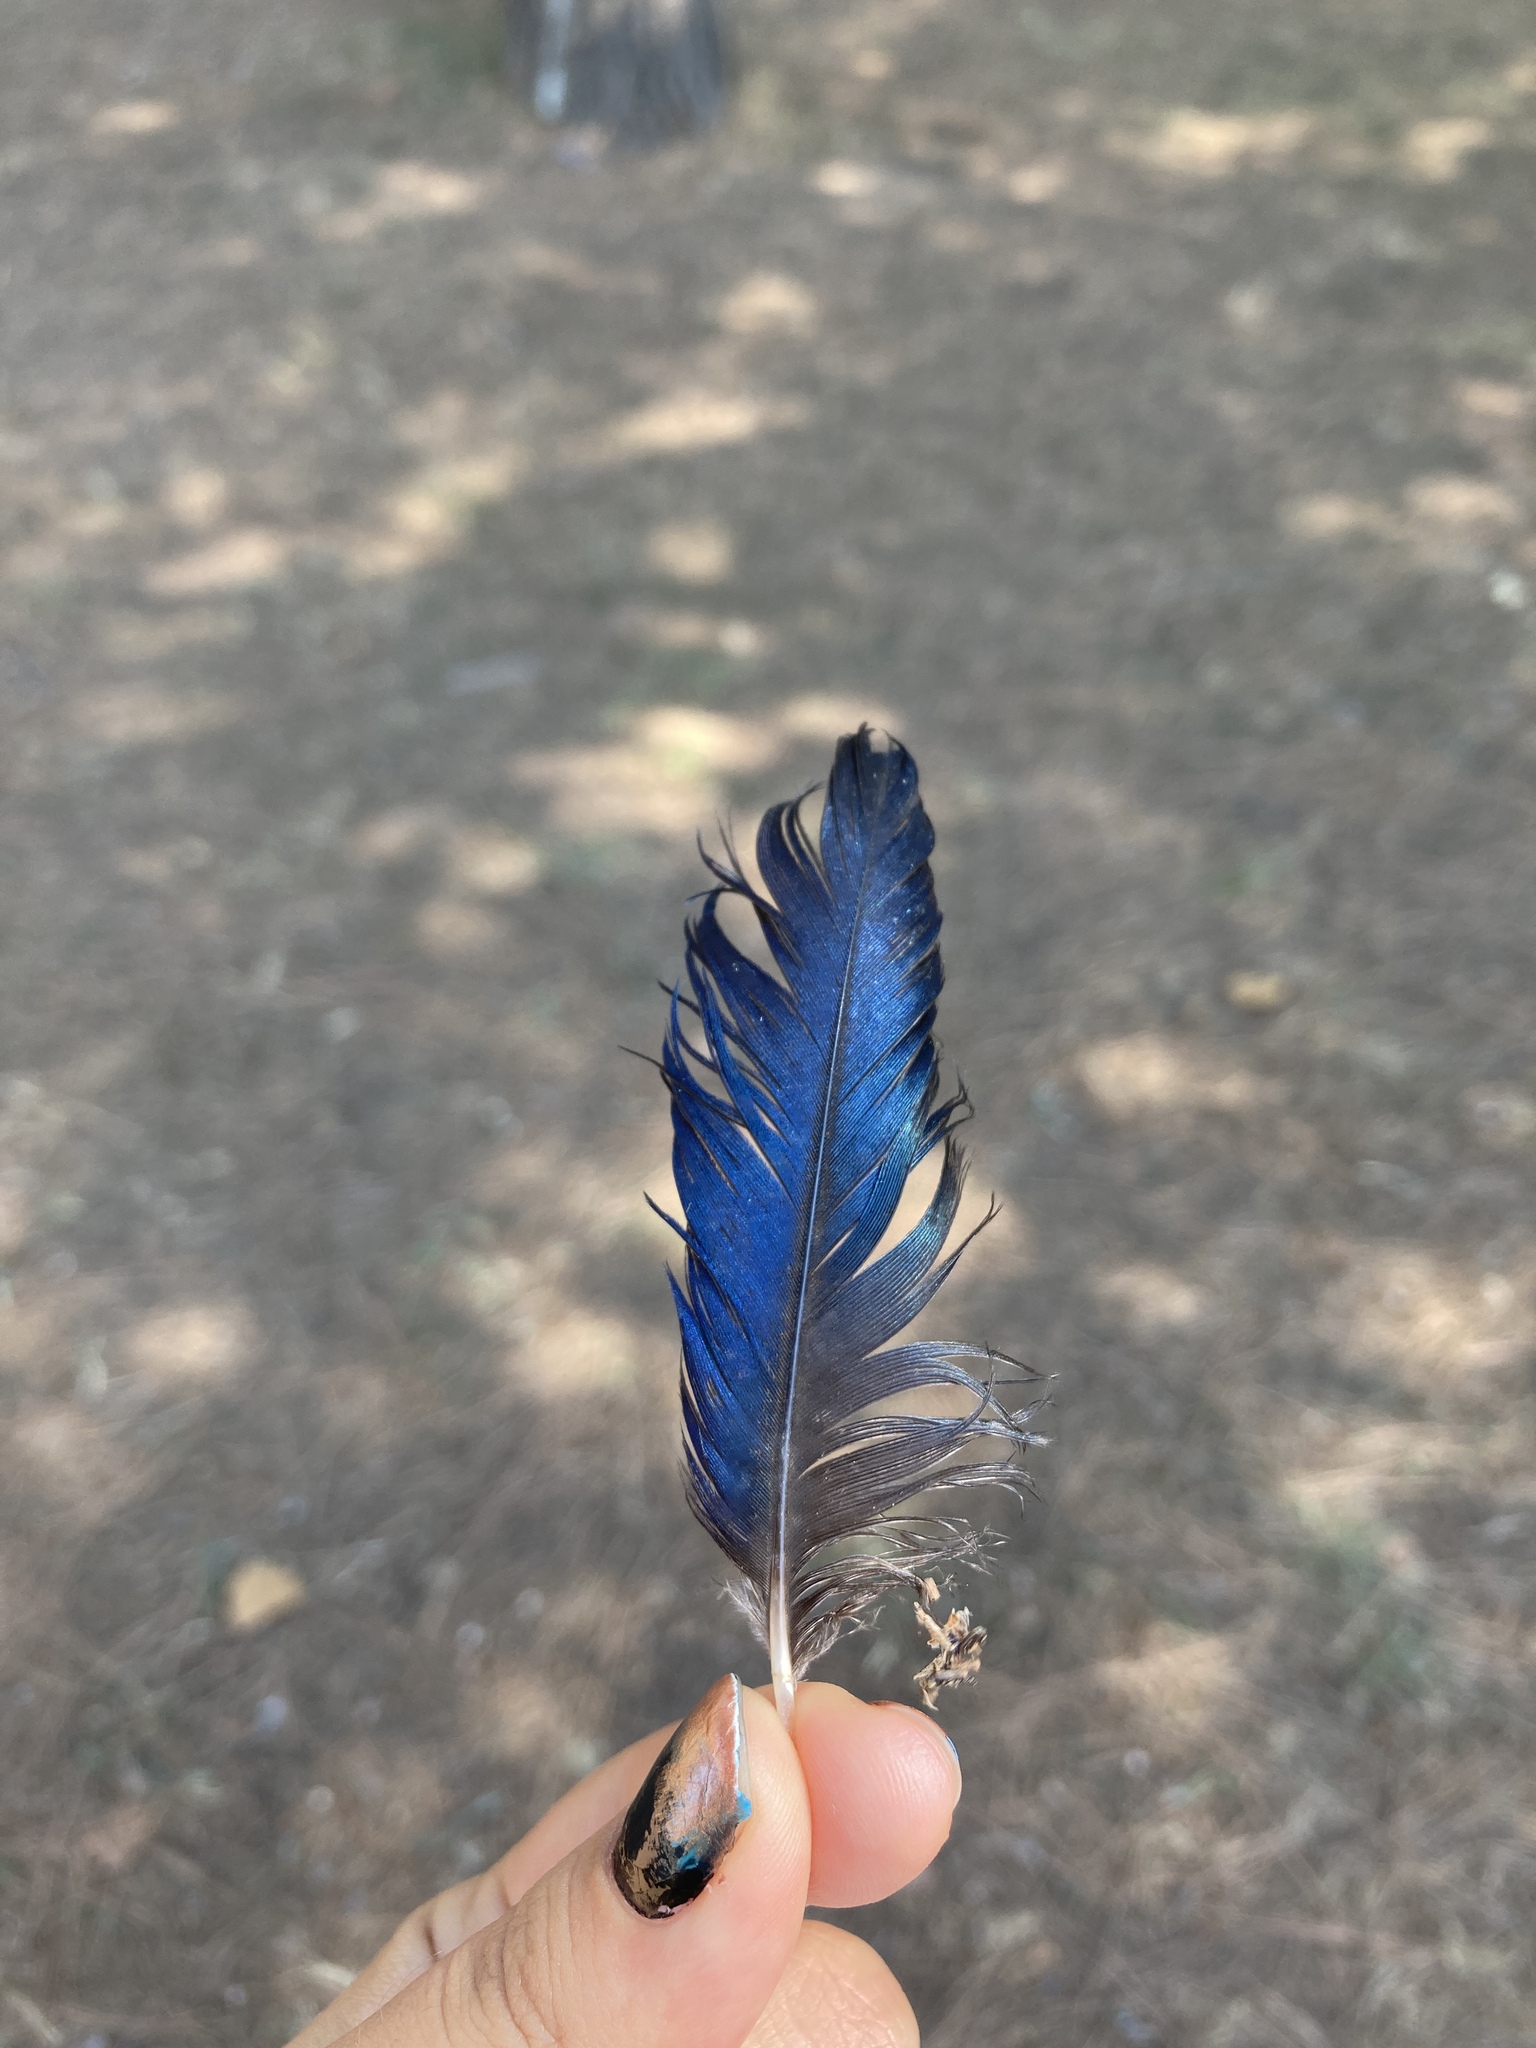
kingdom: Animalia
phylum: Chordata
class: Aves
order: Passeriformes
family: Corvidae
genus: Pica
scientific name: Pica pica
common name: Eurasian magpie
